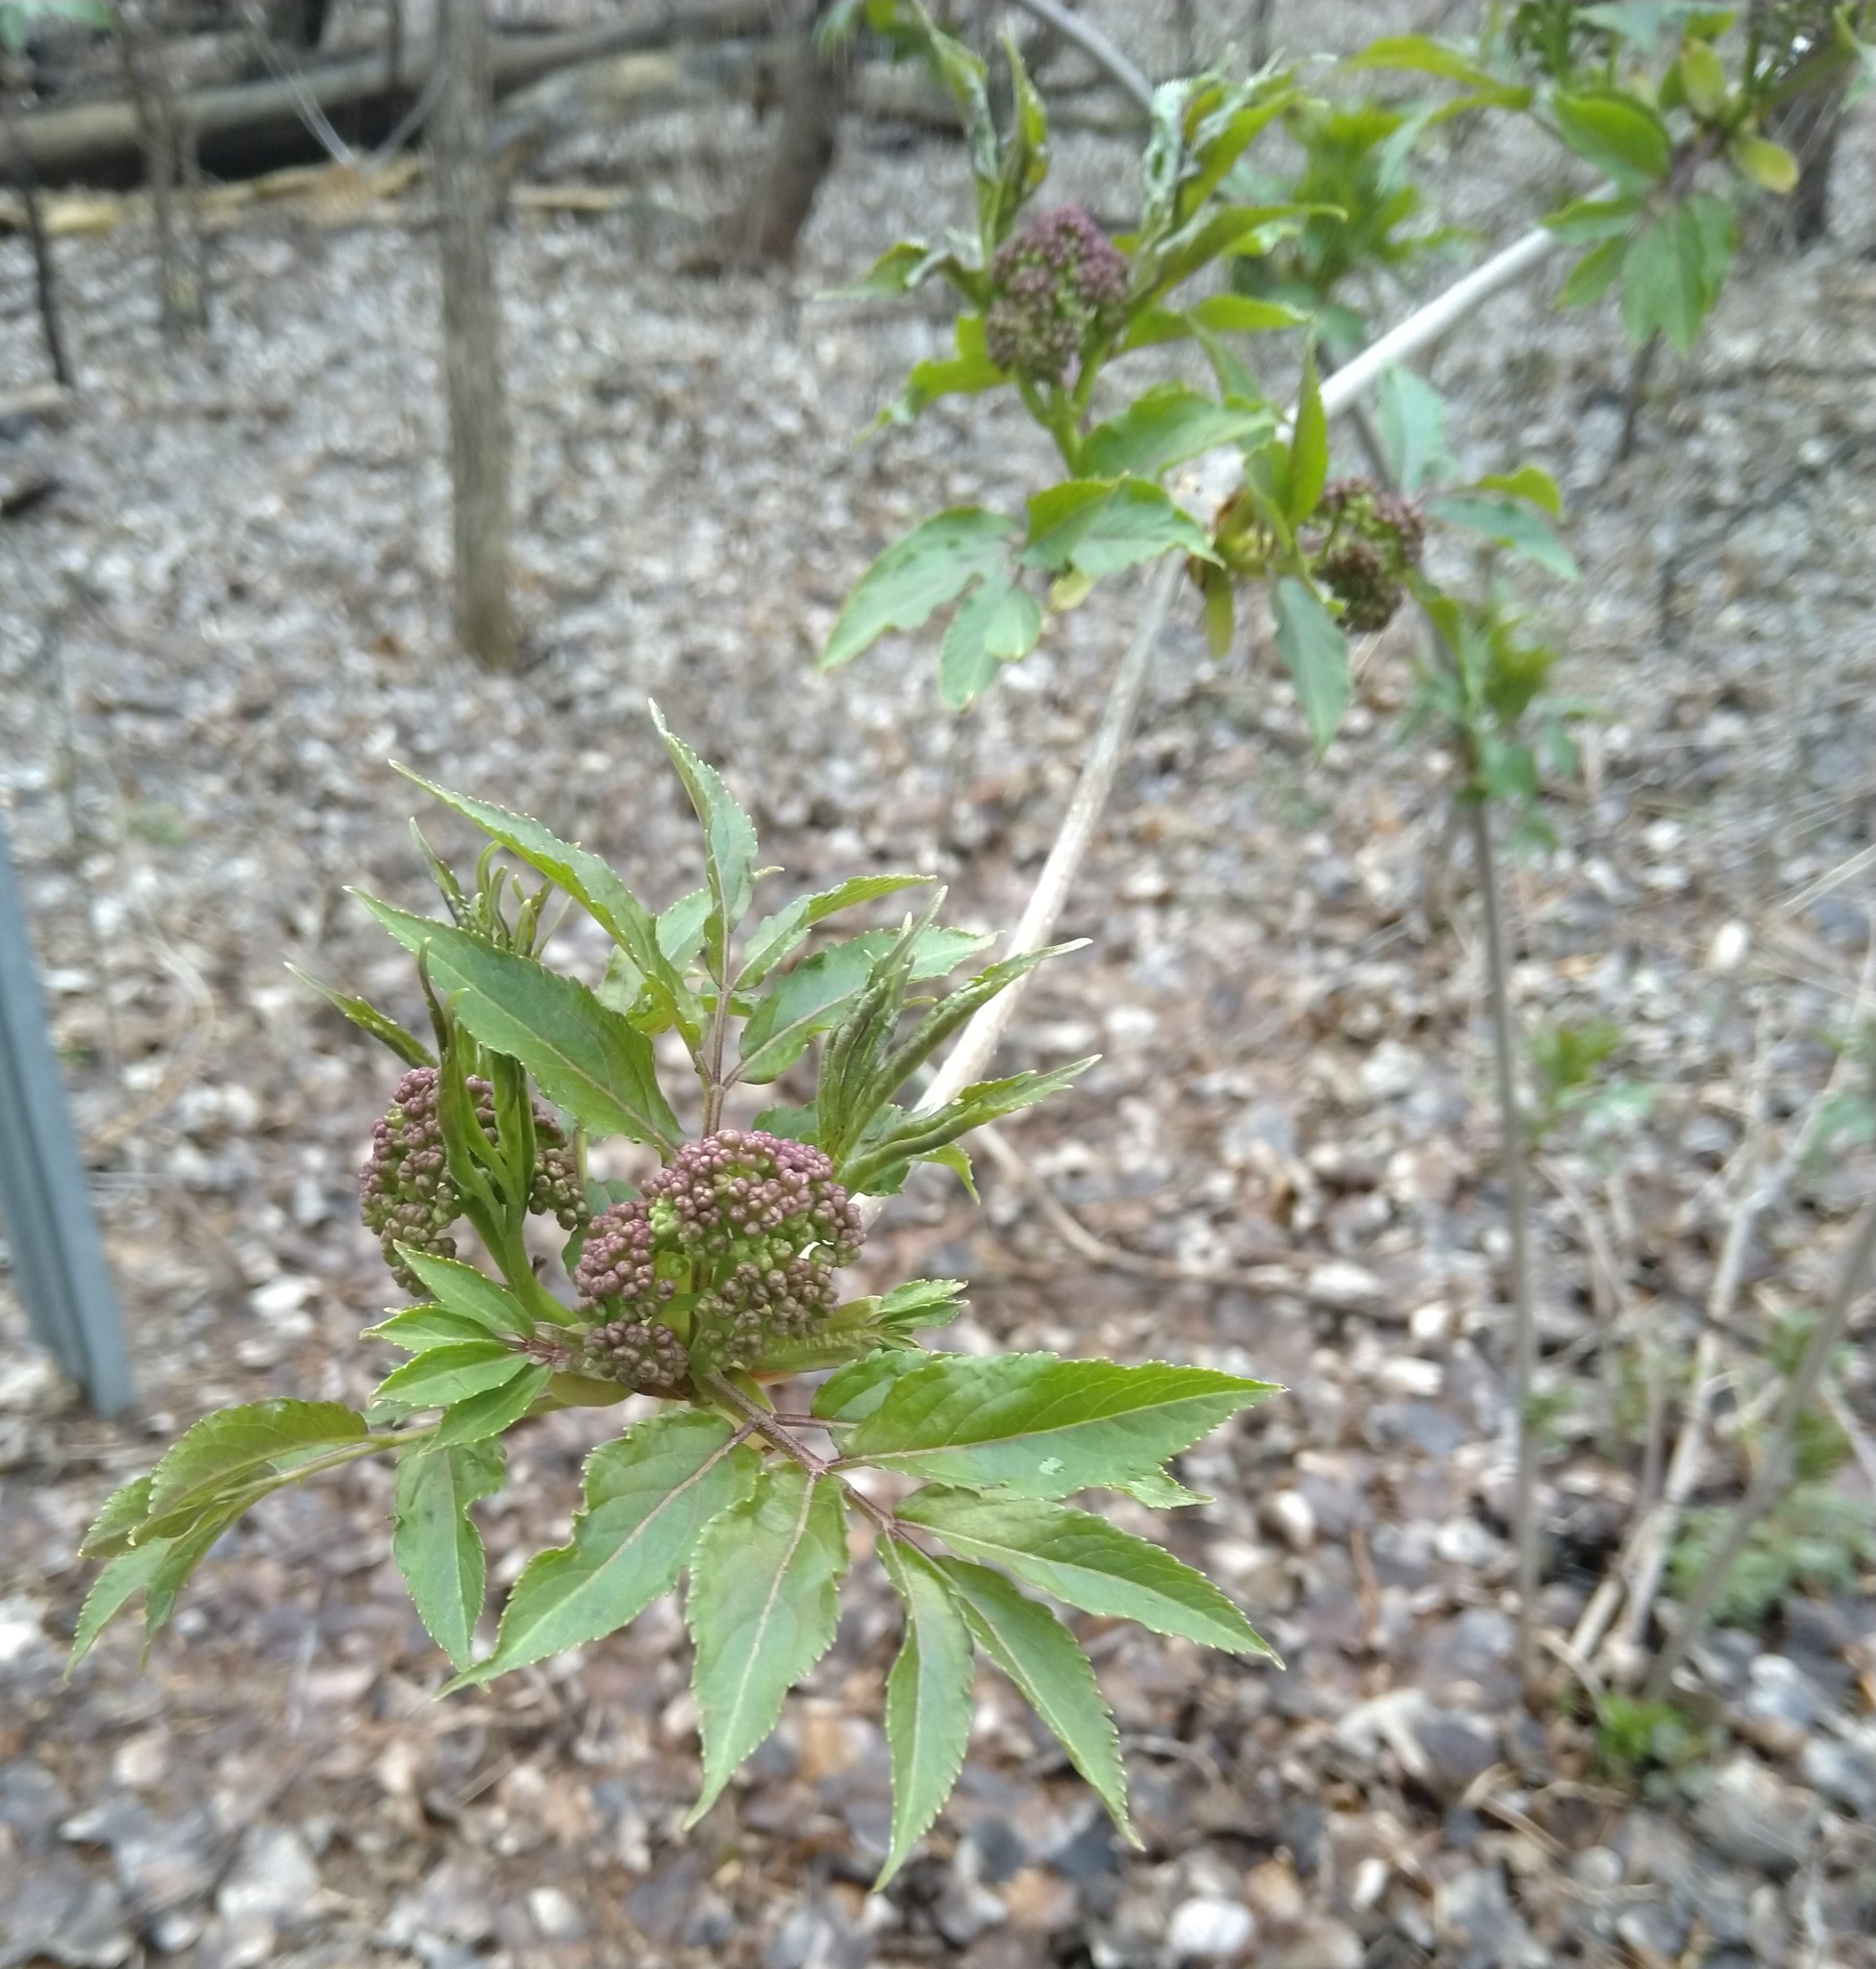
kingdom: Plantae
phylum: Tracheophyta
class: Magnoliopsida
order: Dipsacales
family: Viburnaceae
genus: Sambucus
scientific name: Sambucus racemosa
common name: Red-berried elder
